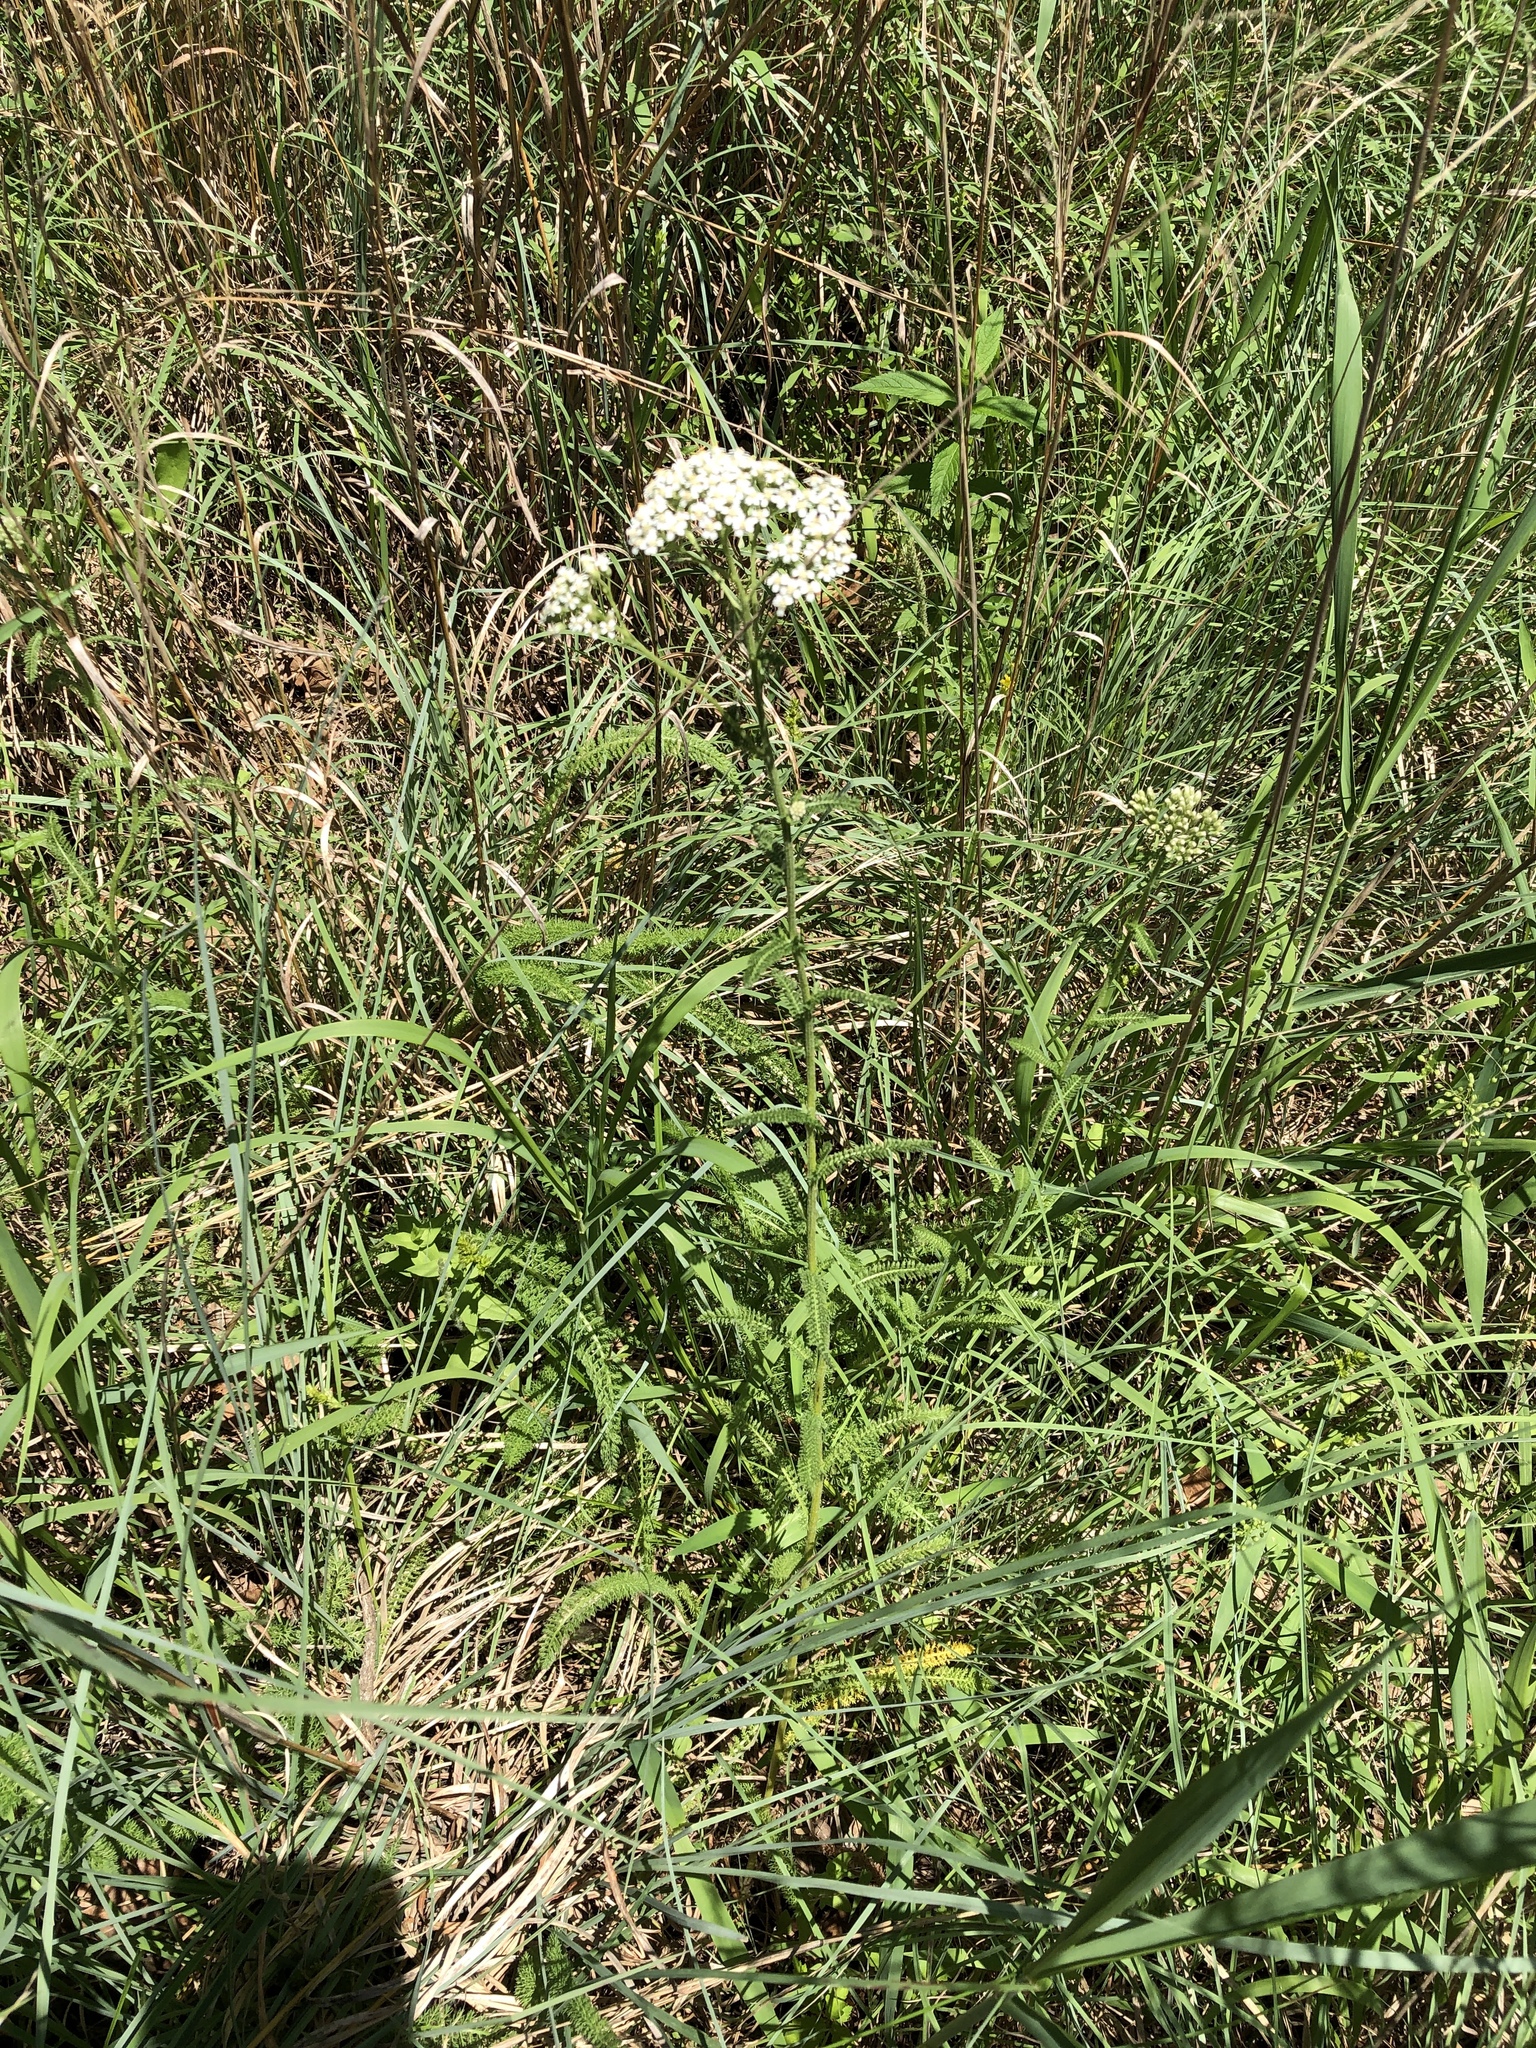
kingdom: Plantae
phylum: Tracheophyta
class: Magnoliopsida
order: Asterales
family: Asteraceae
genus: Achillea
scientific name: Achillea millefolium
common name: Yarrow
